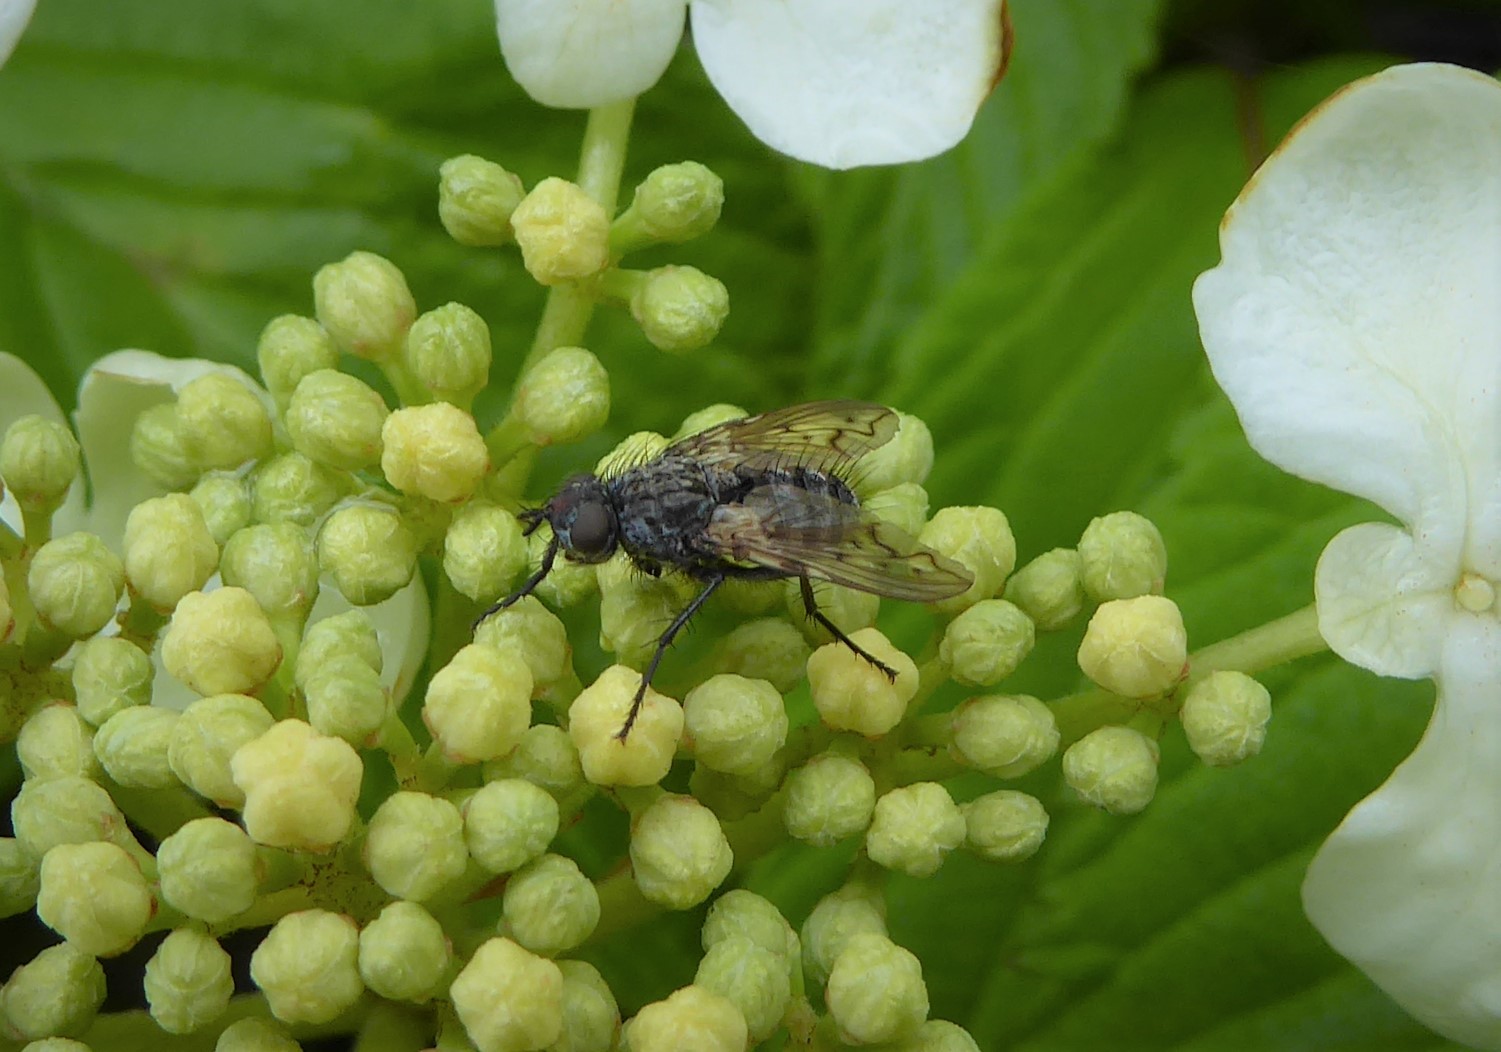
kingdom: Animalia
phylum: Arthropoda
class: Insecta
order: Diptera
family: Tachinidae
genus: Mallochomacquartia
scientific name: Mallochomacquartia vexata
